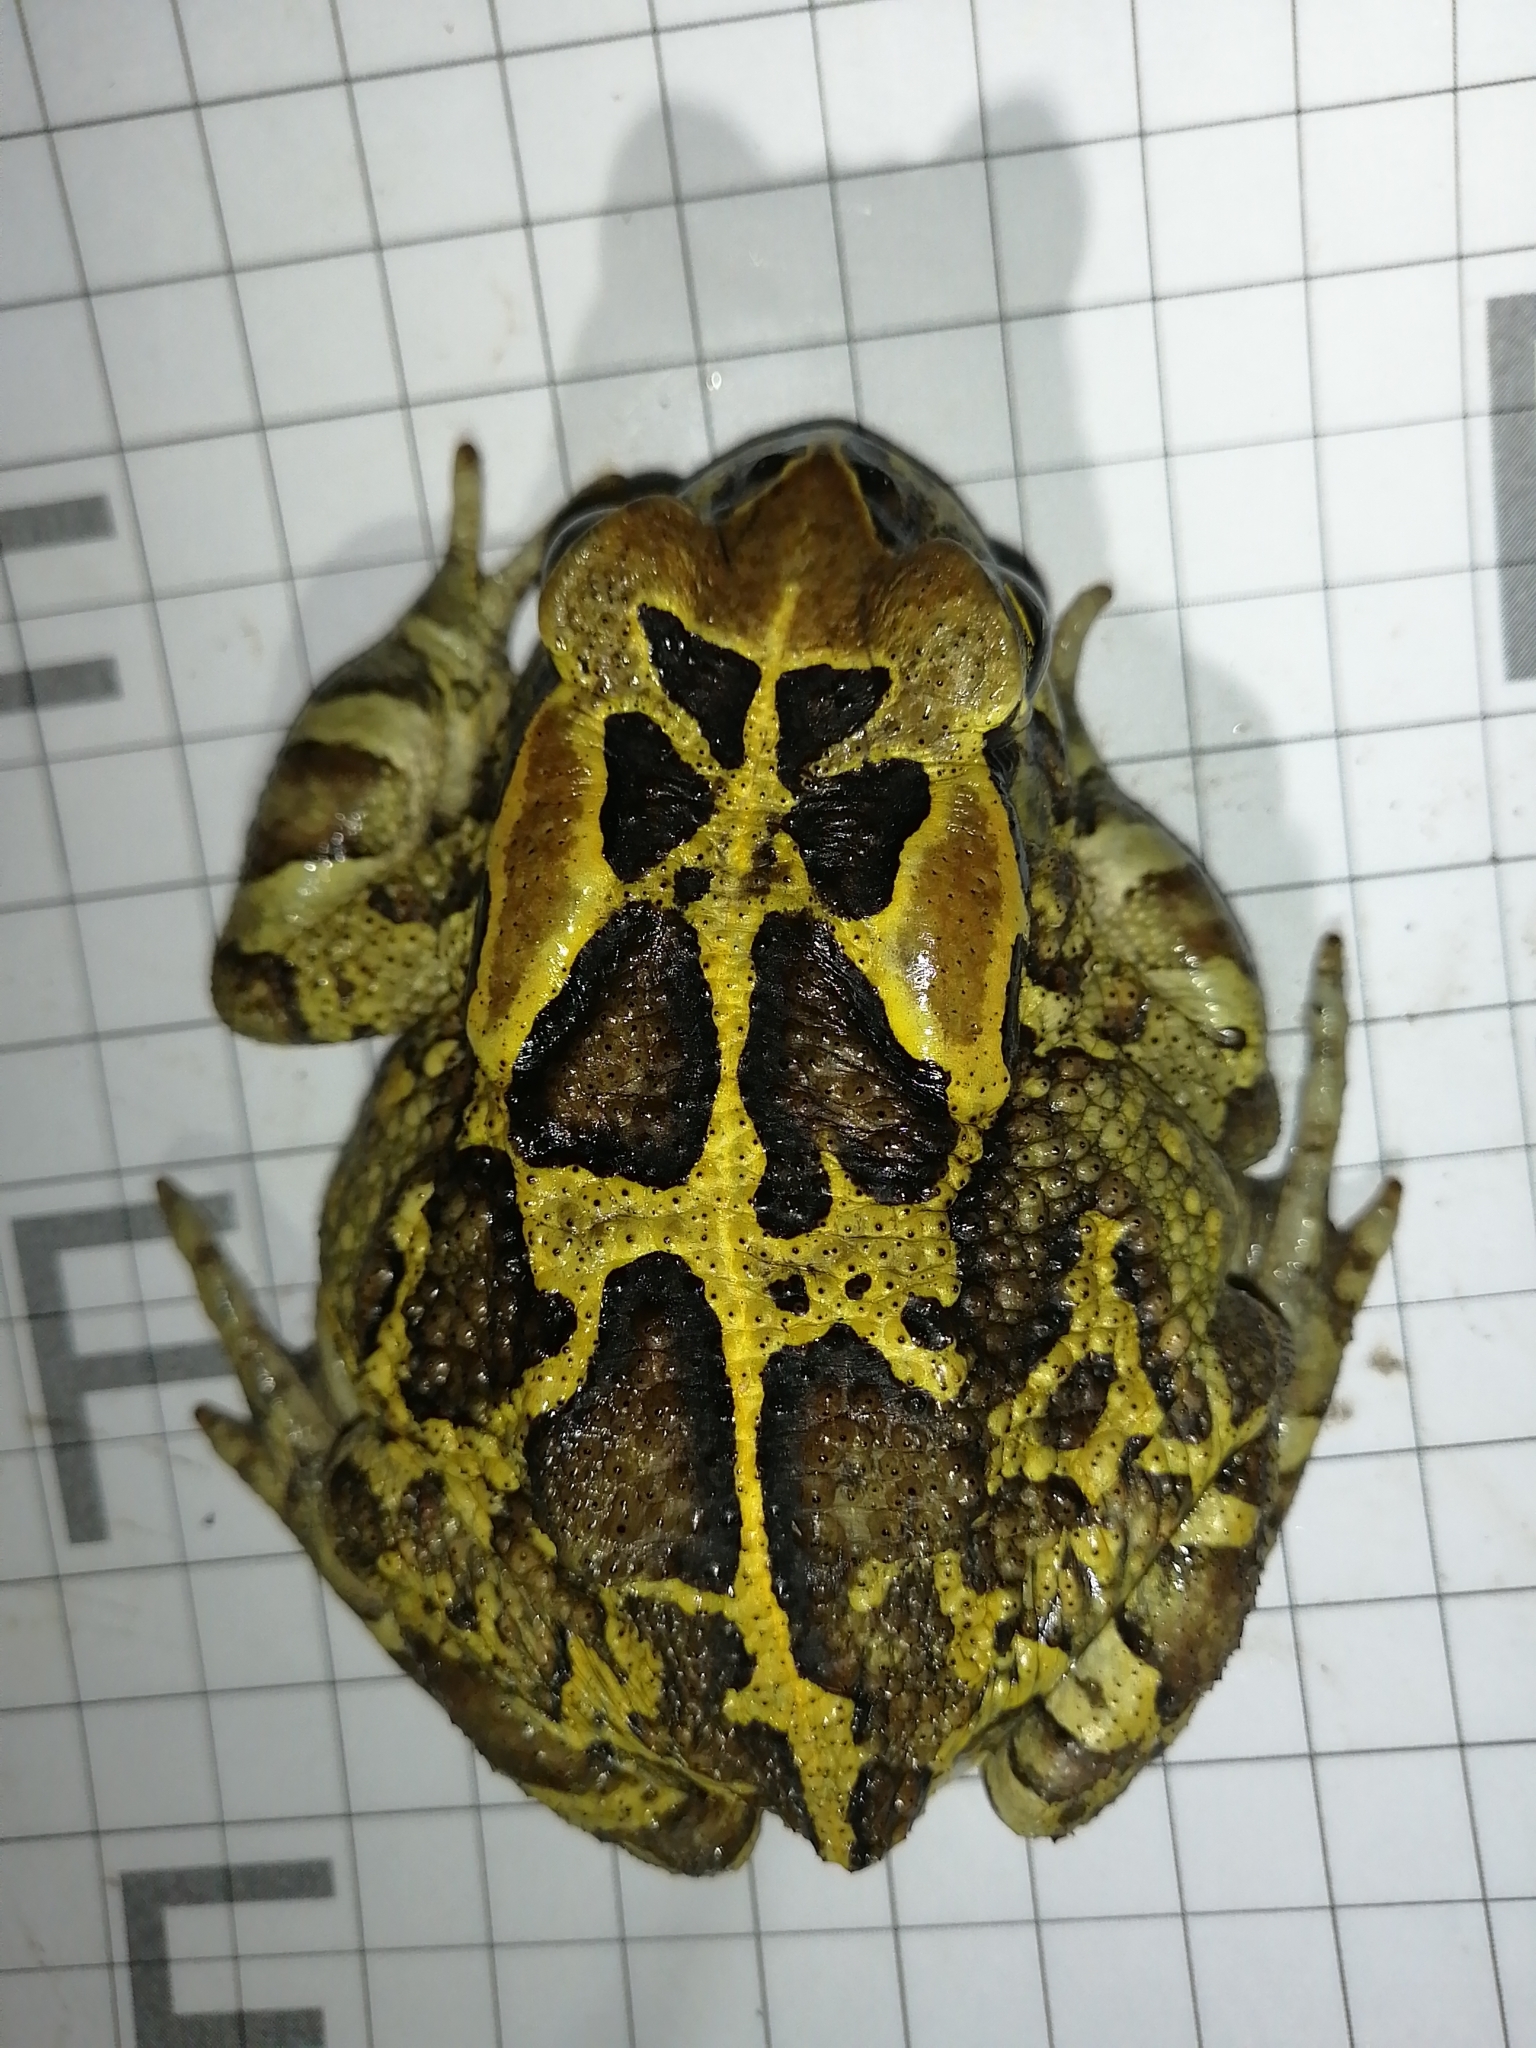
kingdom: Animalia
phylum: Chordata
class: Amphibia
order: Anura
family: Bufonidae
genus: Sclerophrys
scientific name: Sclerophrys pantherina
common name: Panther toad
